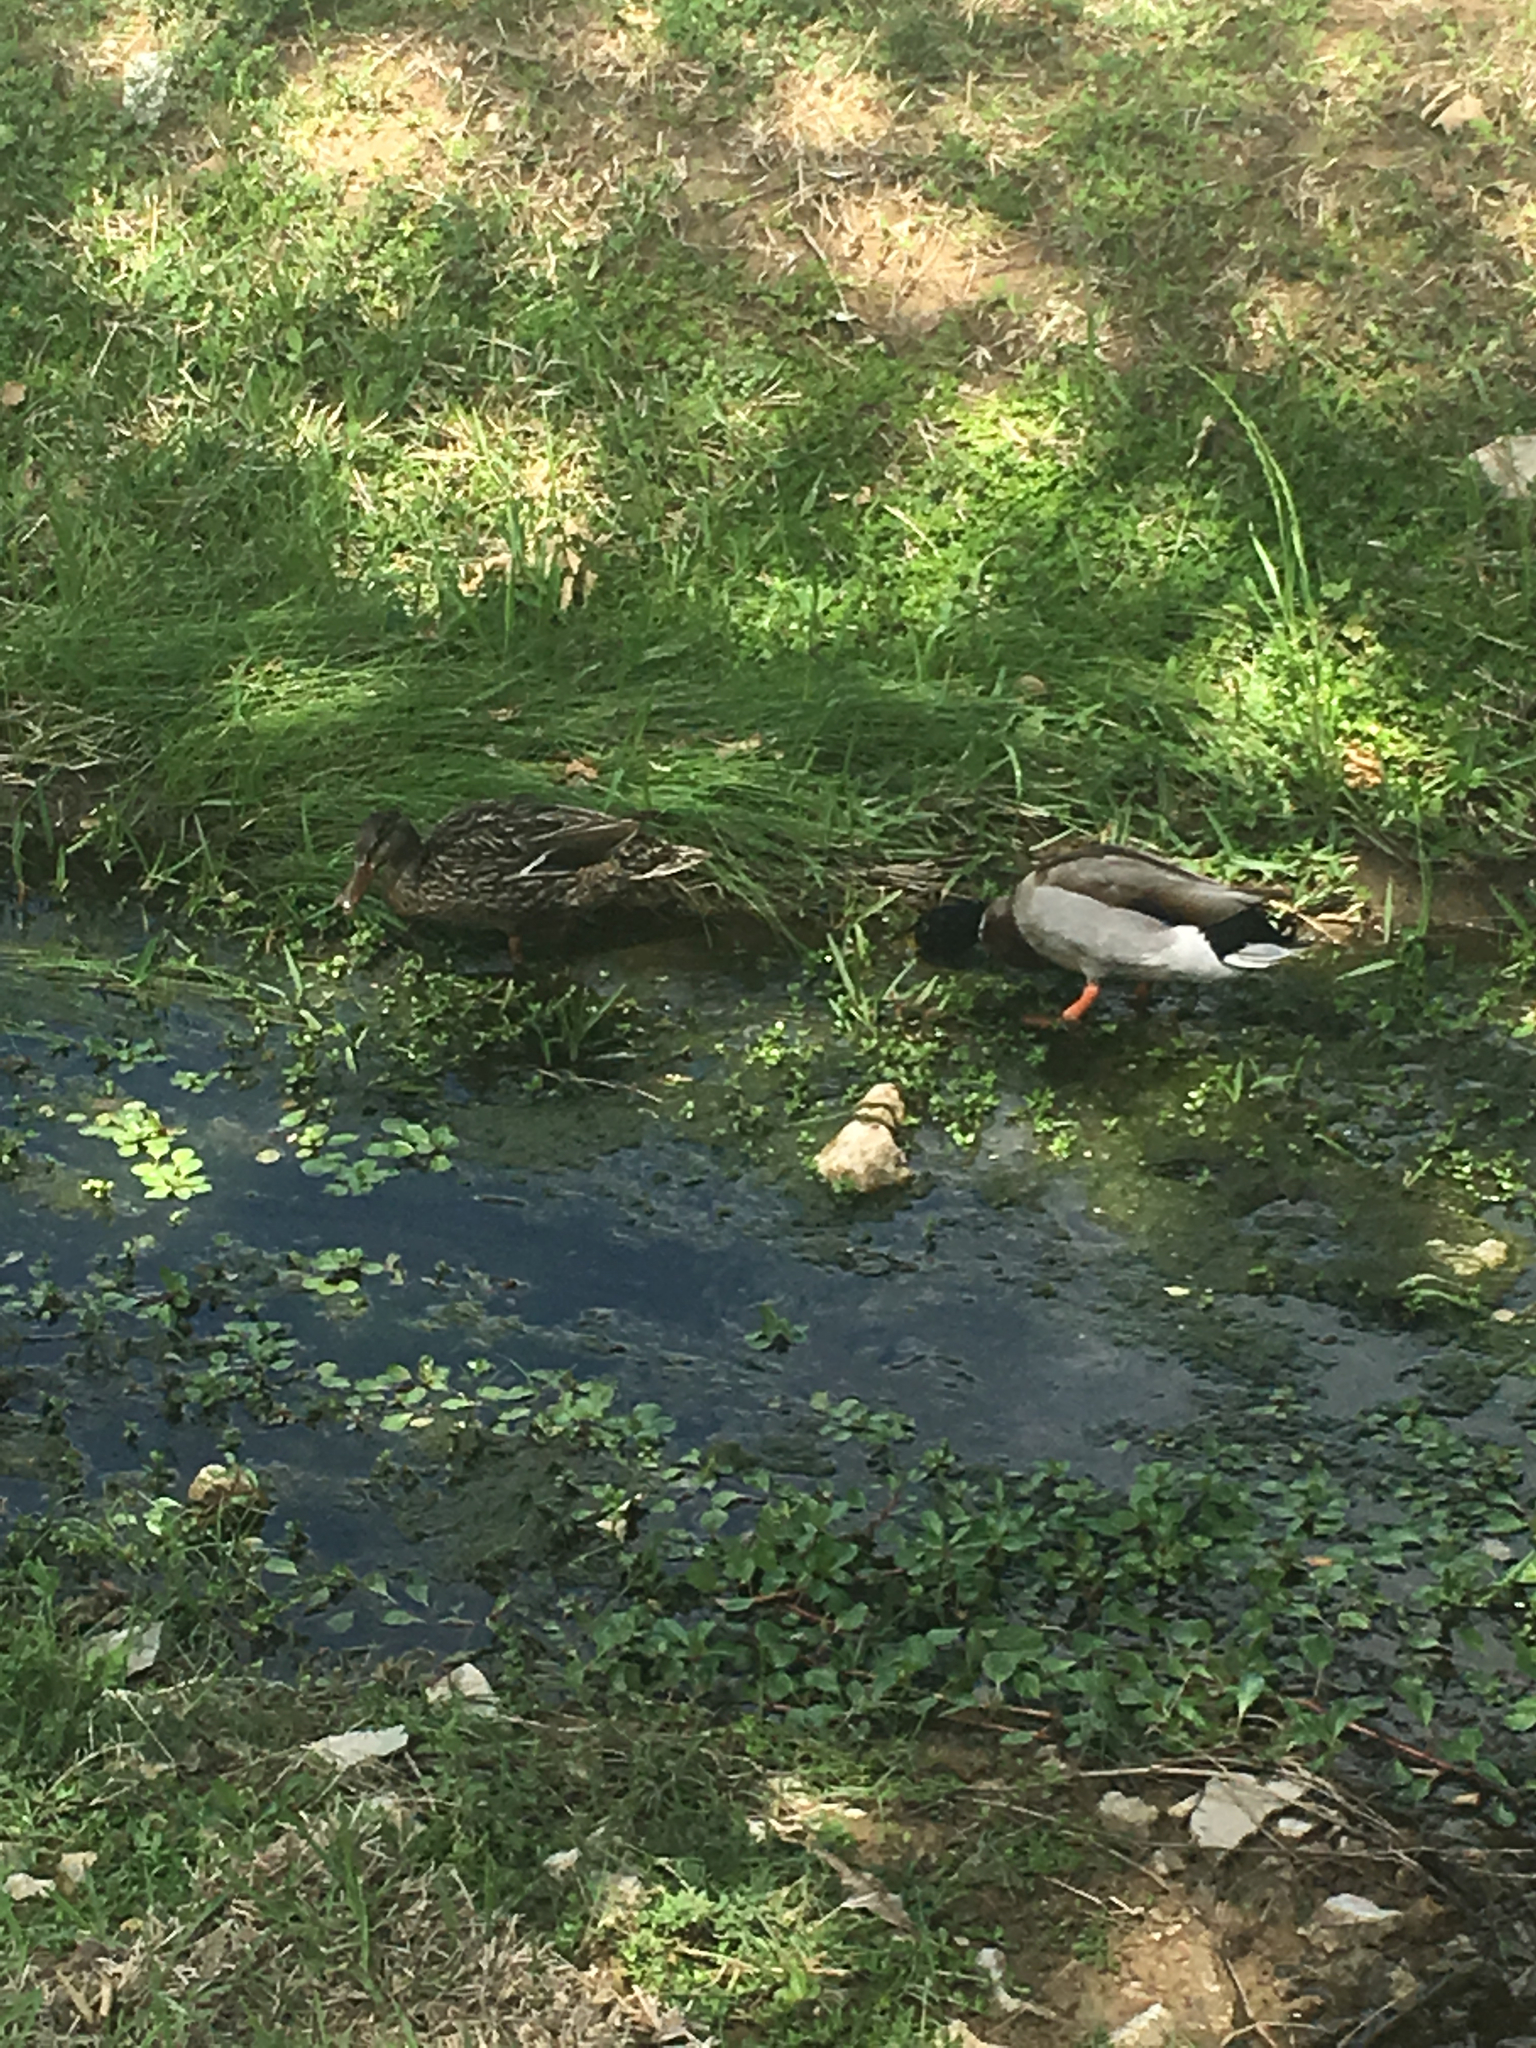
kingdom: Animalia
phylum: Chordata
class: Aves
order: Anseriformes
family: Anatidae
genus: Anas
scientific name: Anas platyrhynchos
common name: Mallard
